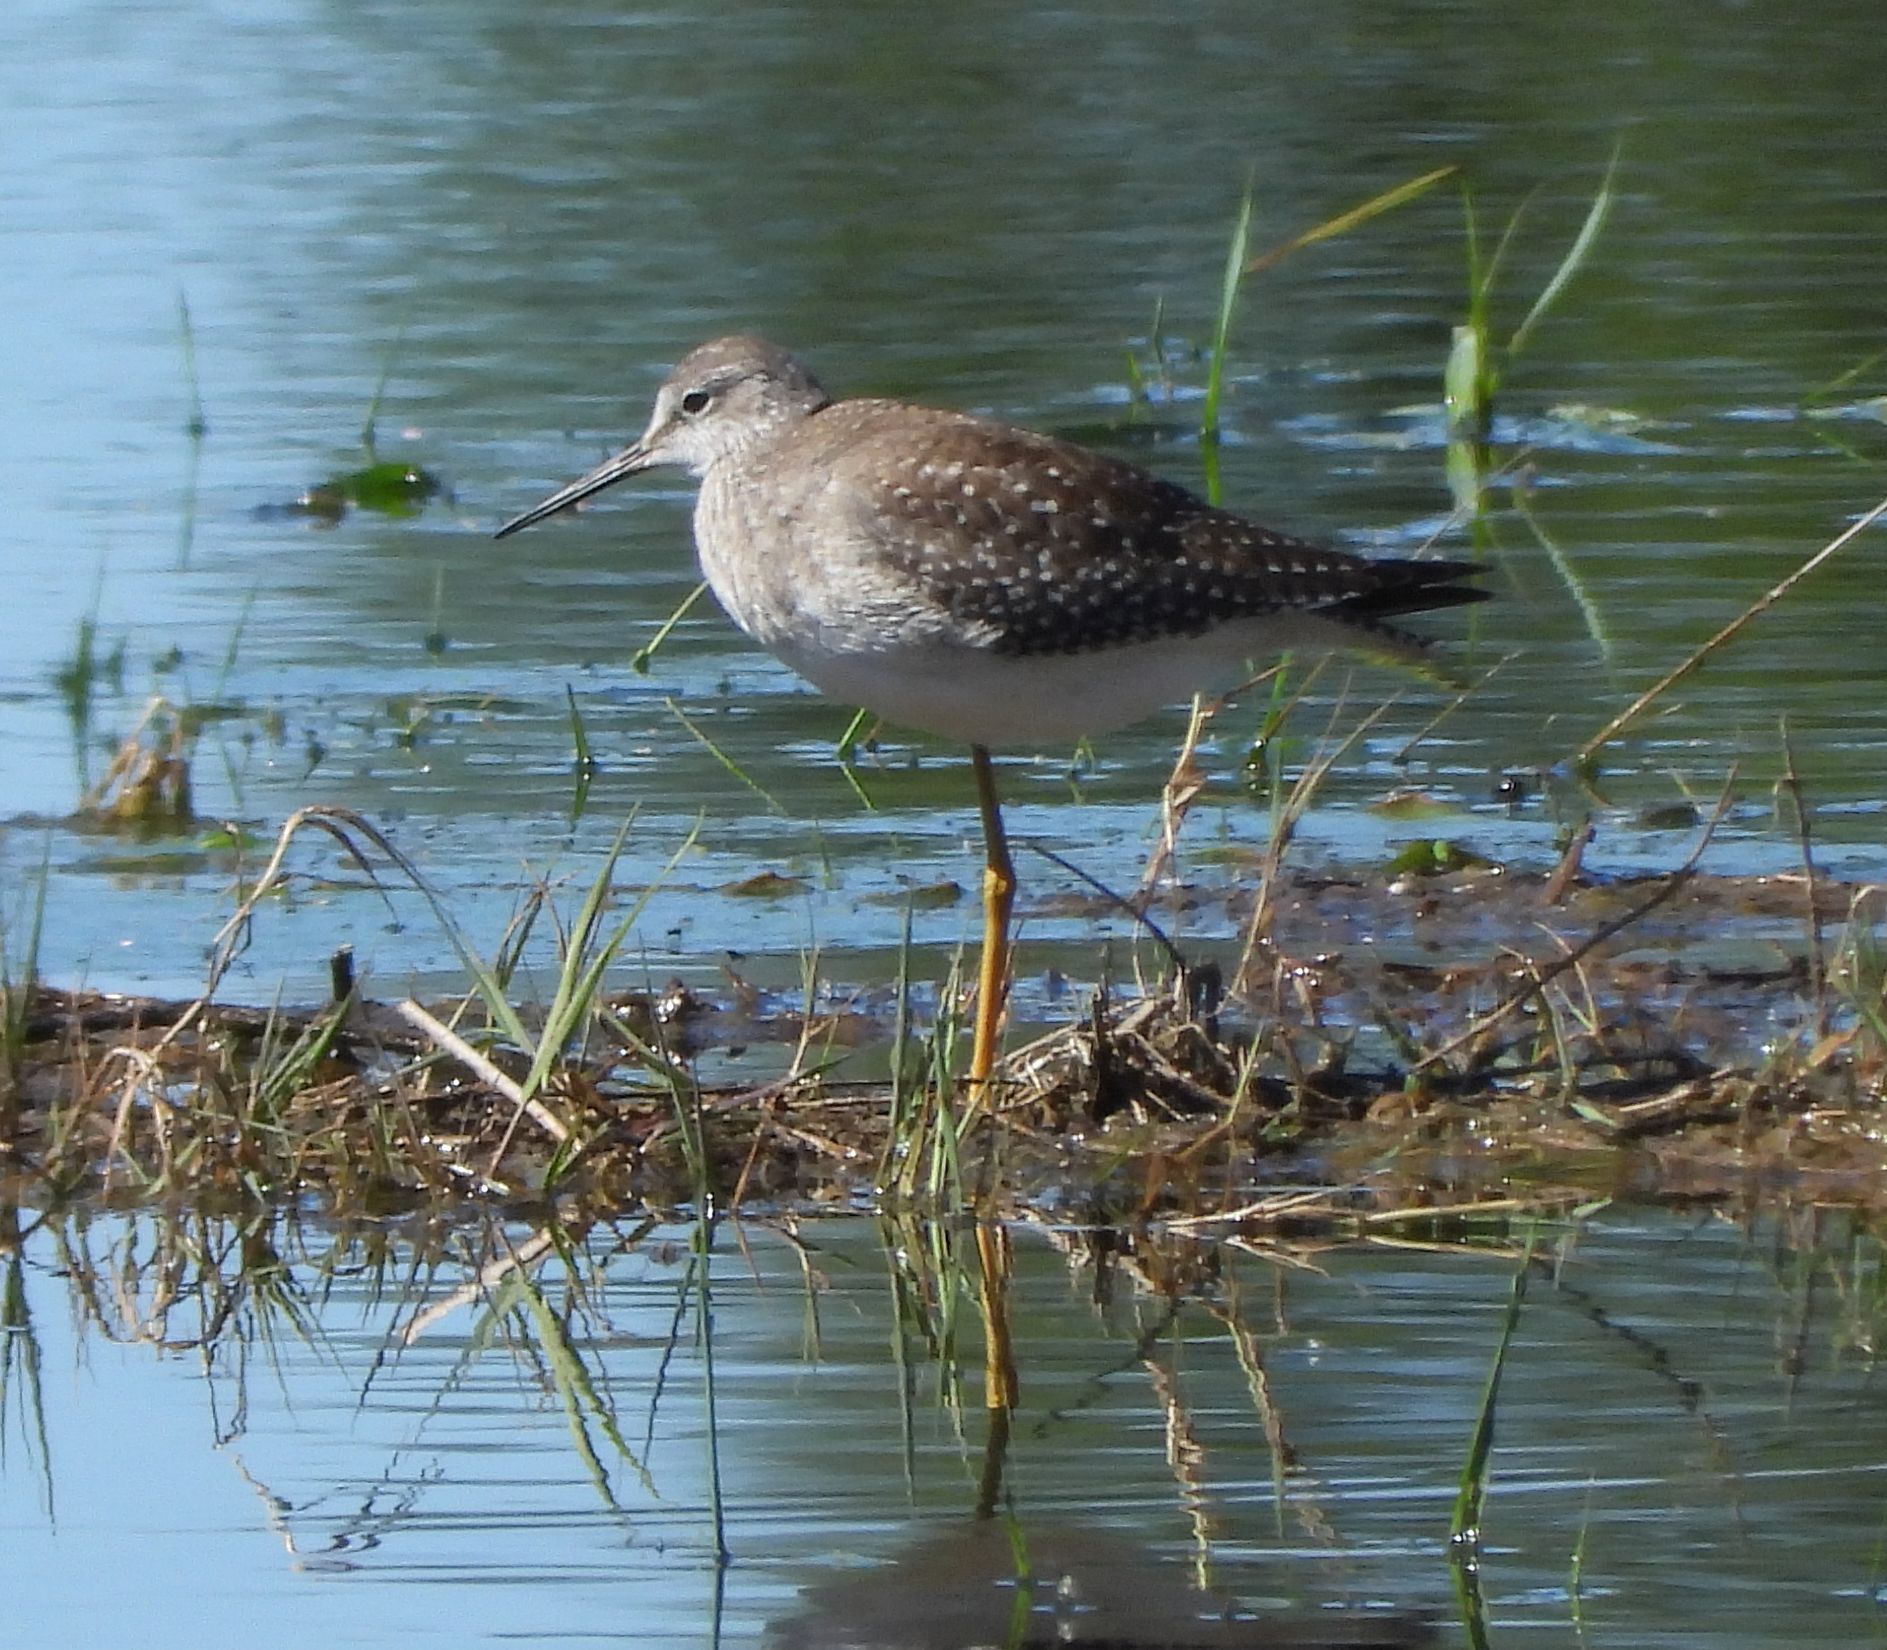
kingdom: Animalia
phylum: Chordata
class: Aves
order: Charadriiformes
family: Scolopacidae
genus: Tringa
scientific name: Tringa flavipes
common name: Lesser yellowlegs
